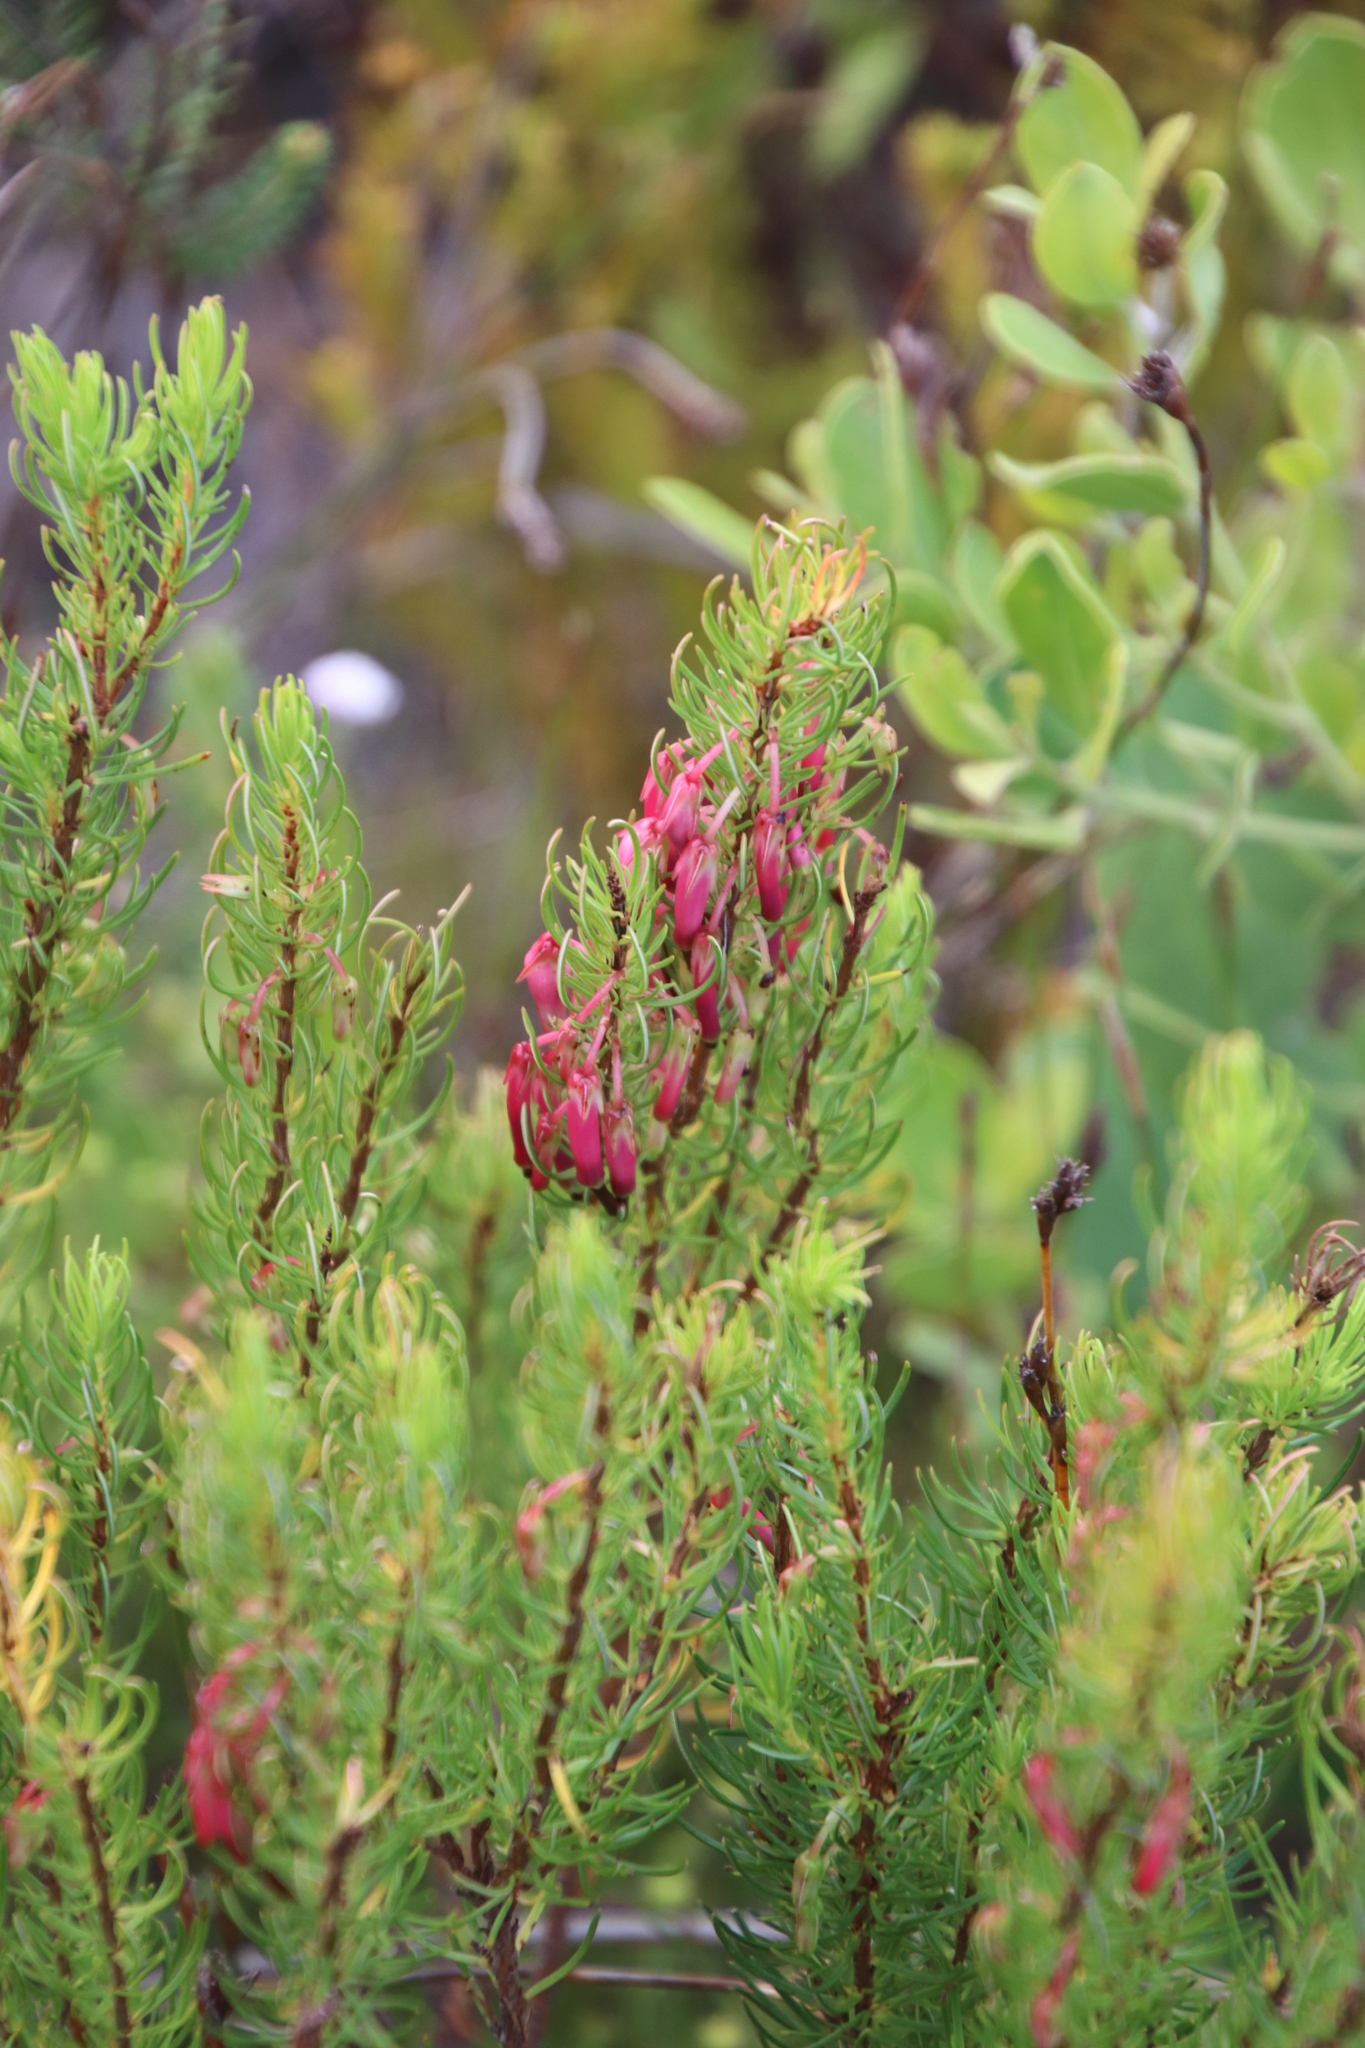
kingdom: Plantae
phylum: Tracheophyta
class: Magnoliopsida
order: Ericales
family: Ericaceae
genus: Erica
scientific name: Erica plukenetii
